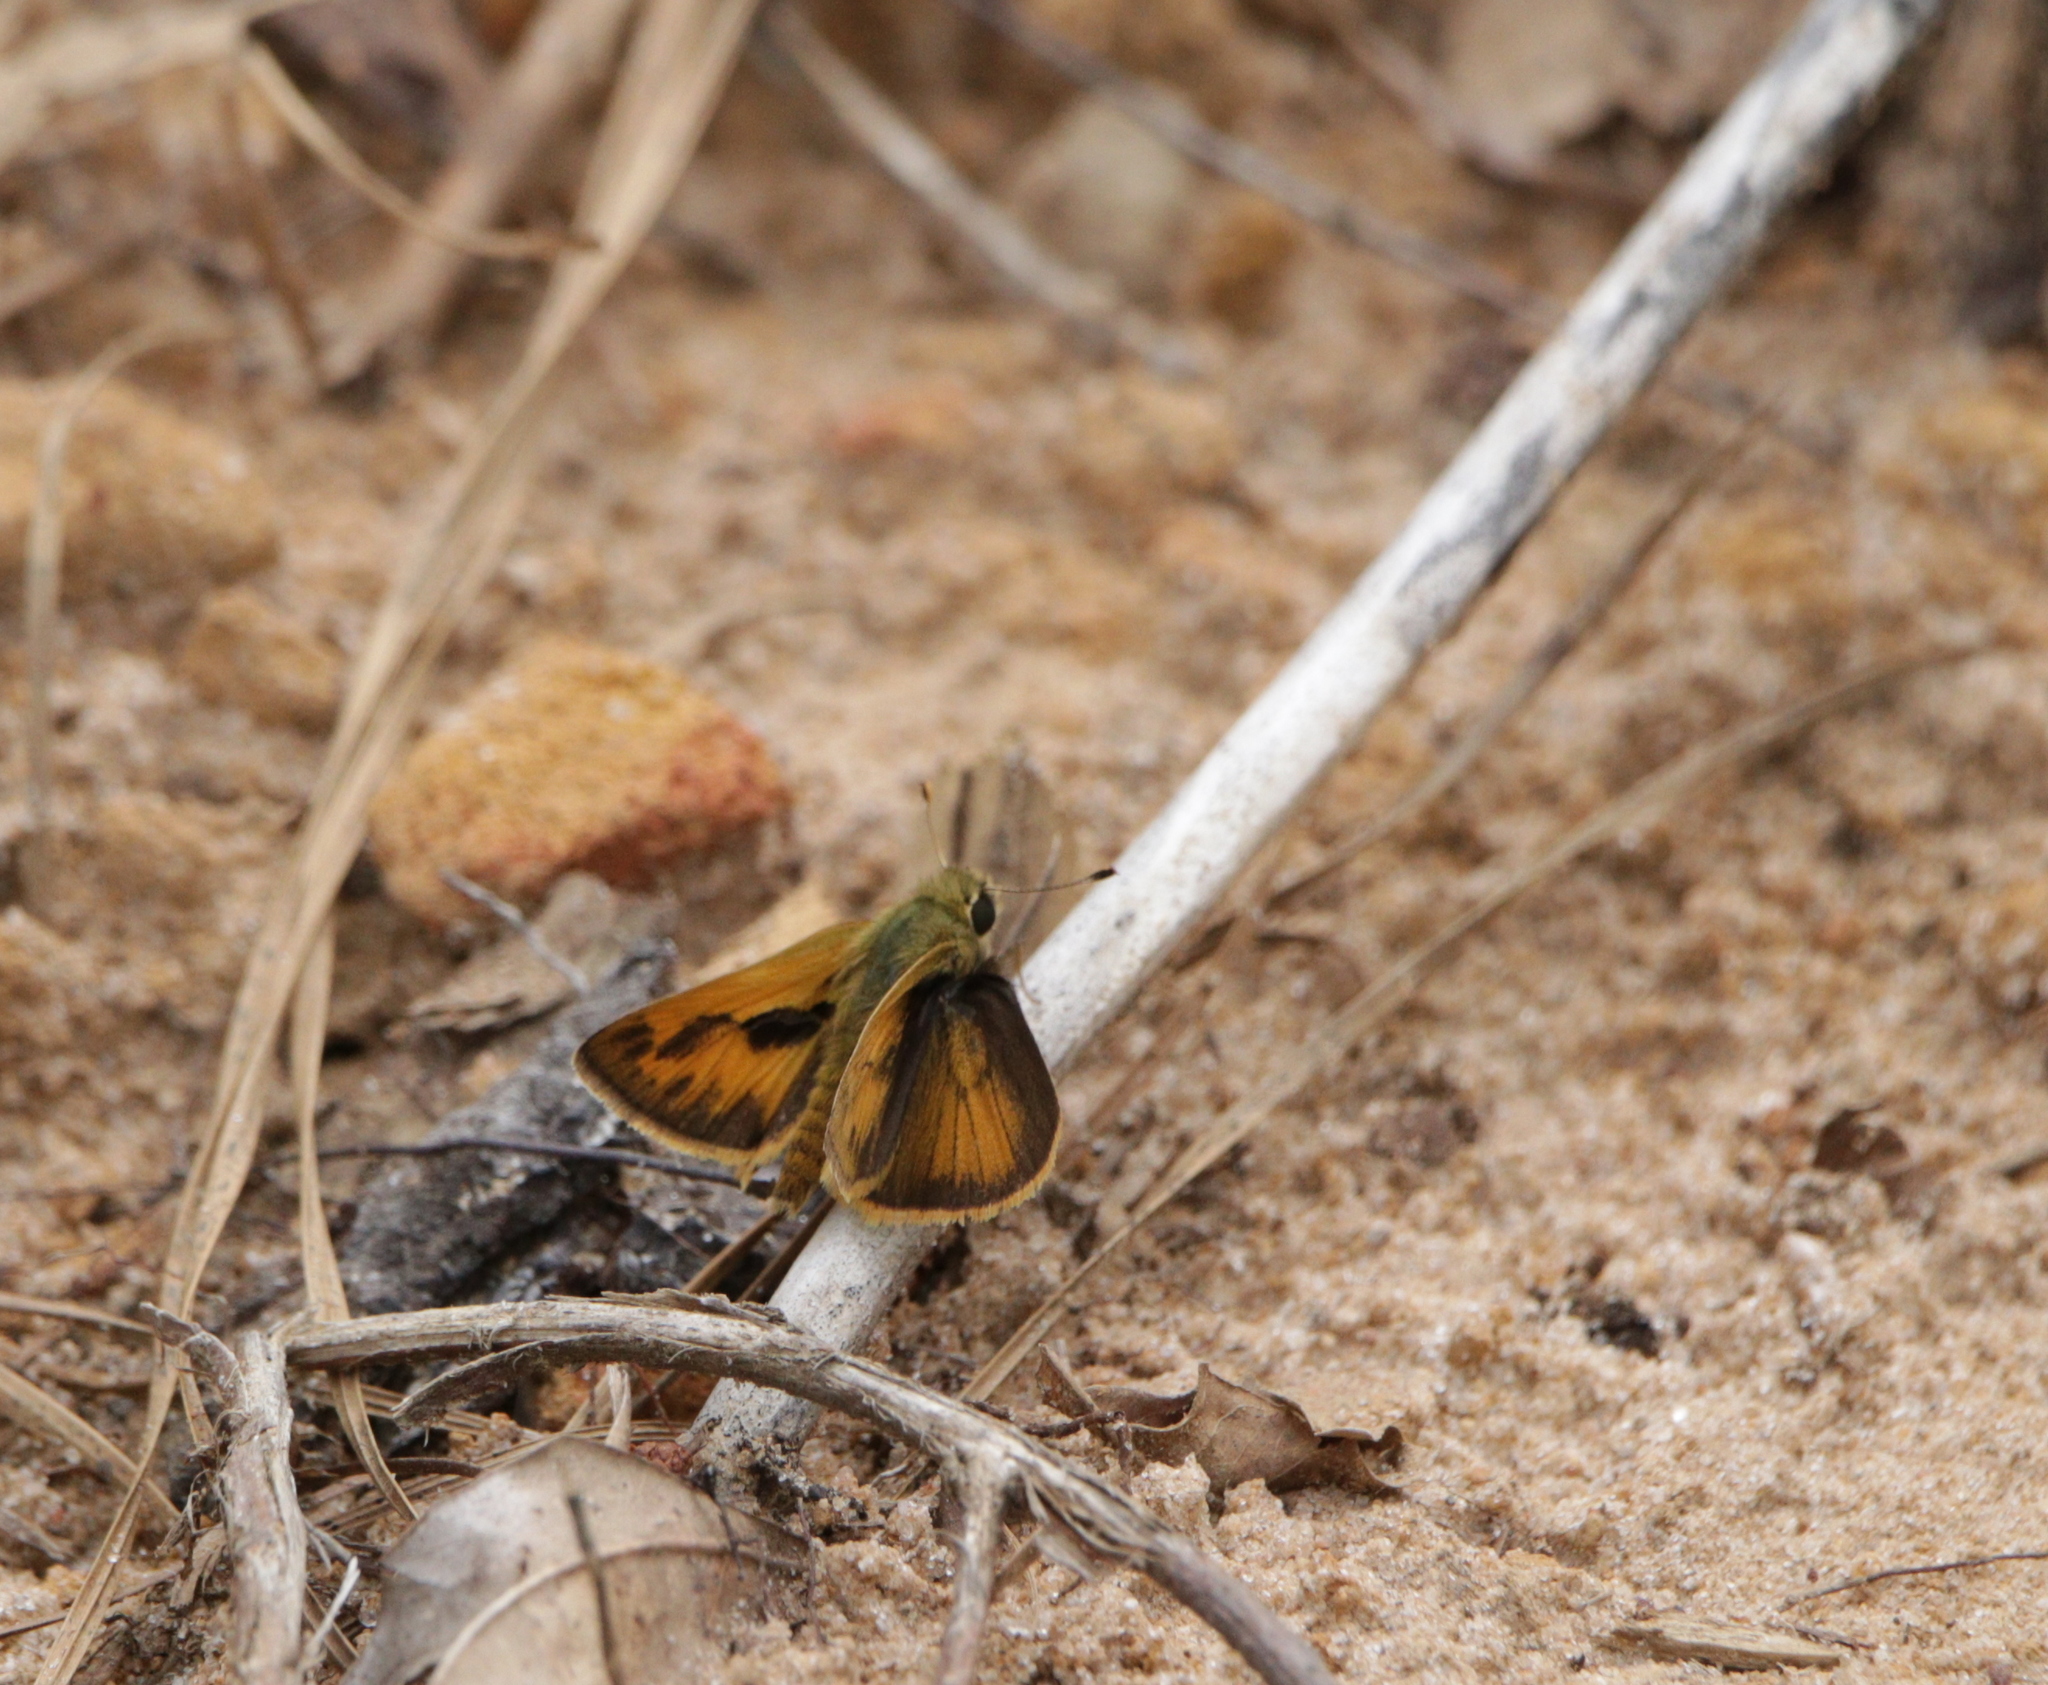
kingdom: Animalia
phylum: Arthropoda
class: Insecta
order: Lepidoptera
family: Hesperiidae
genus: Polites
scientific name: Polites vibex
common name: Whirlabout
